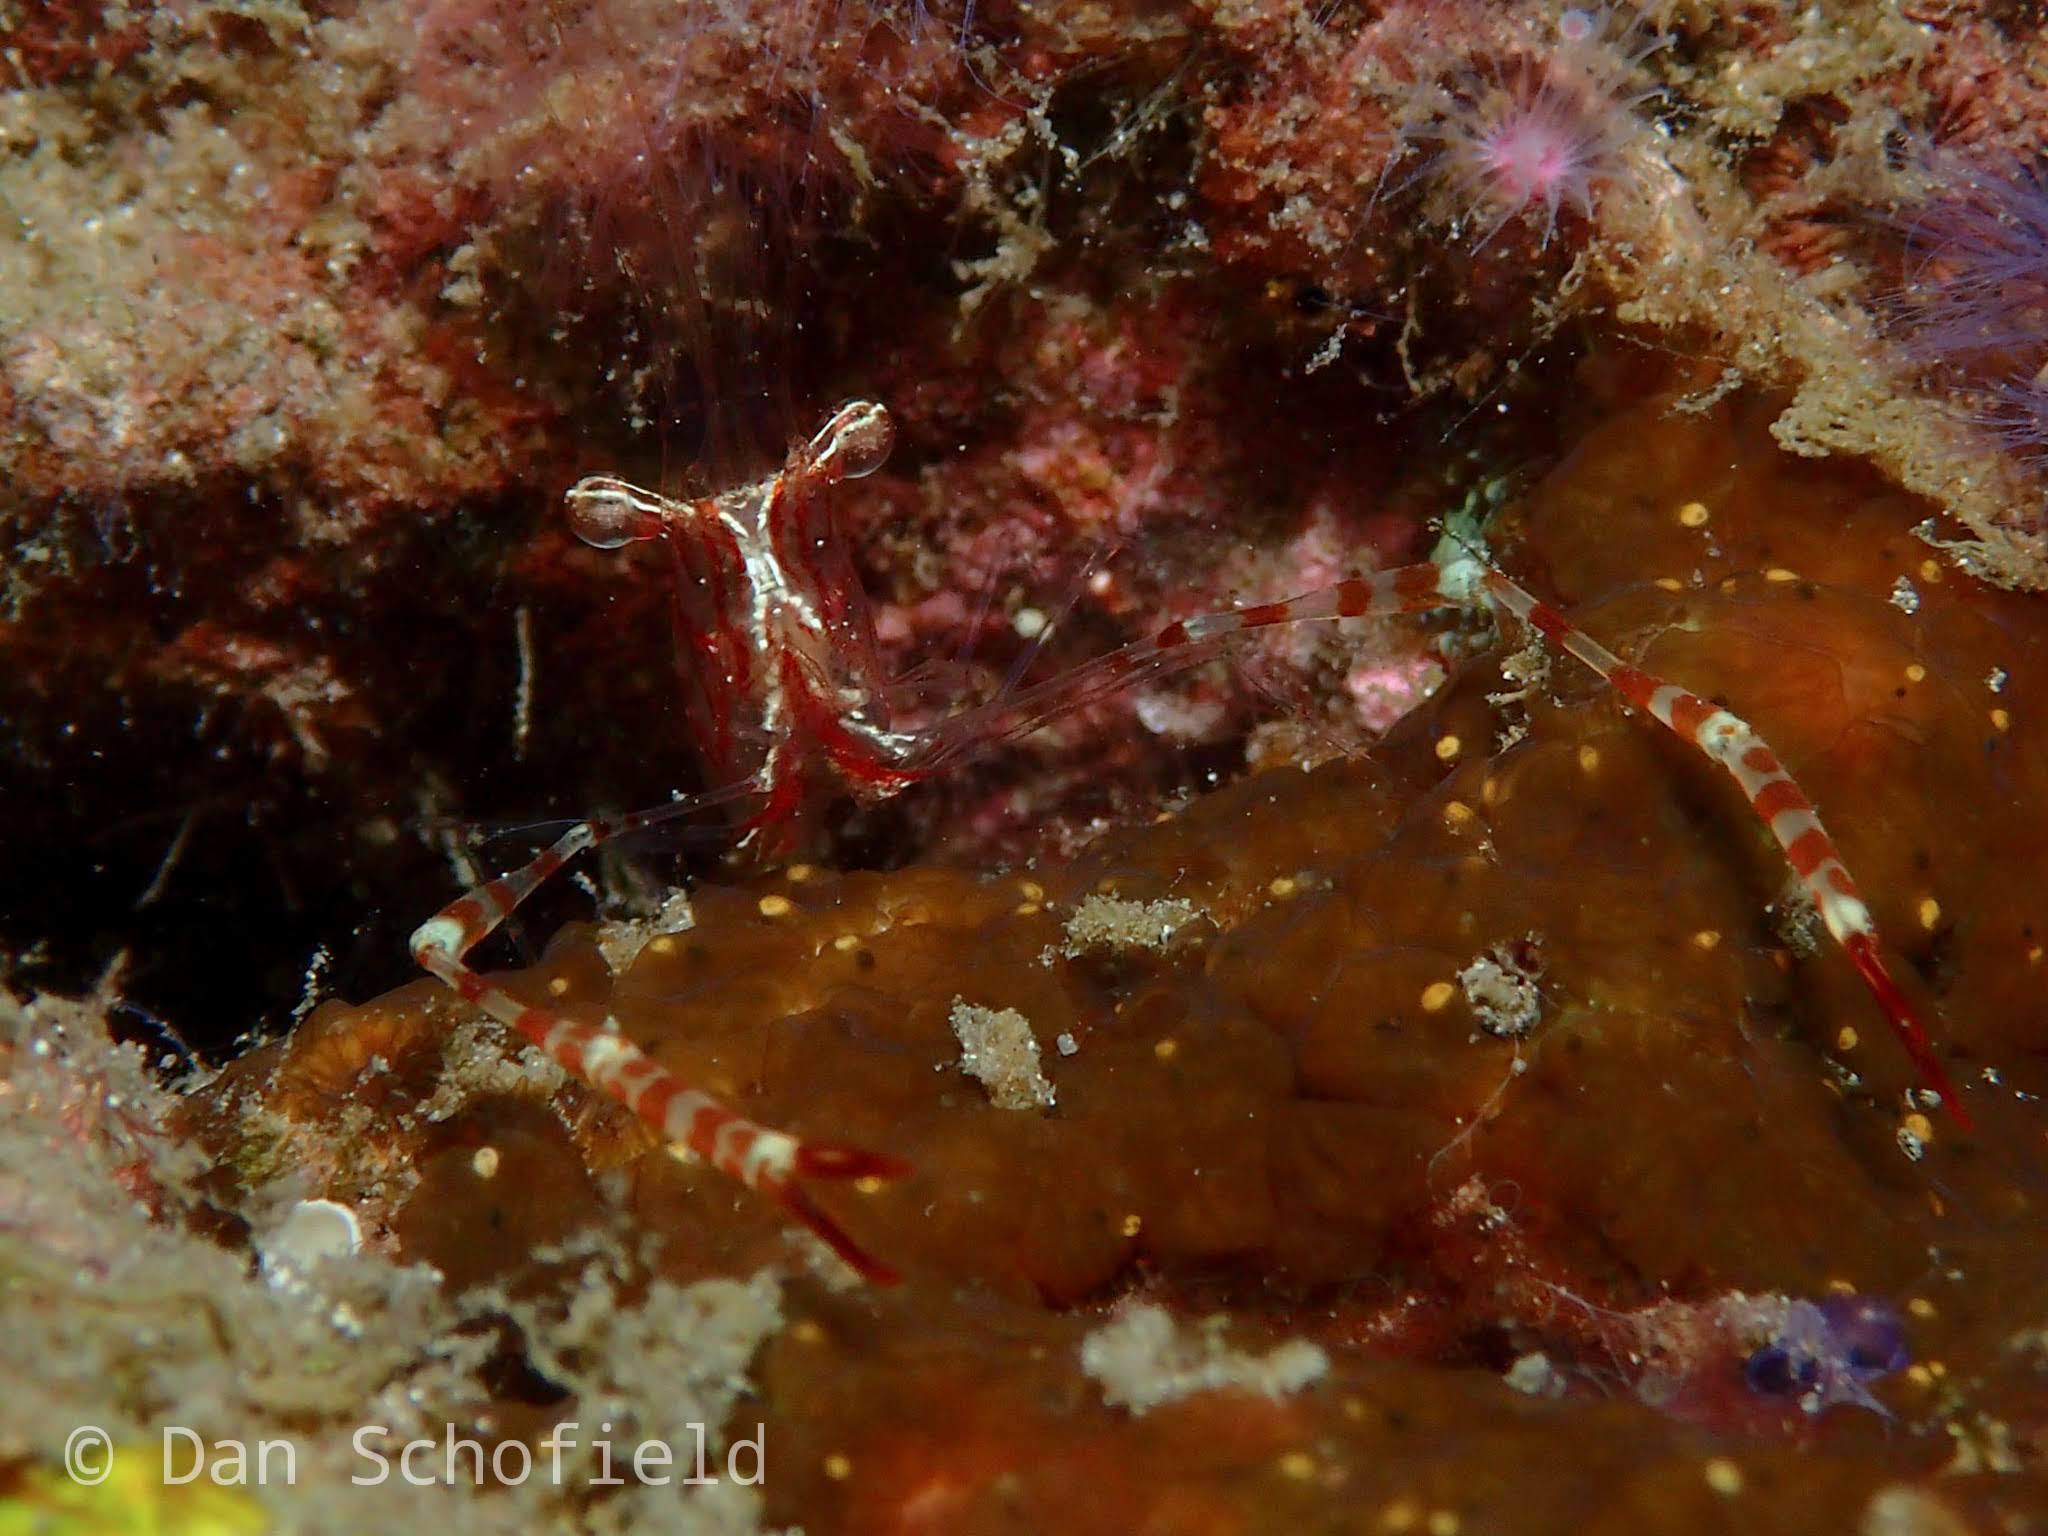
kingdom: Animalia
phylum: Arthropoda
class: Malacostraca
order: Decapoda
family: Palaemonidae
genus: Periclimenes
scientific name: Periclimenes ischiospinosus
